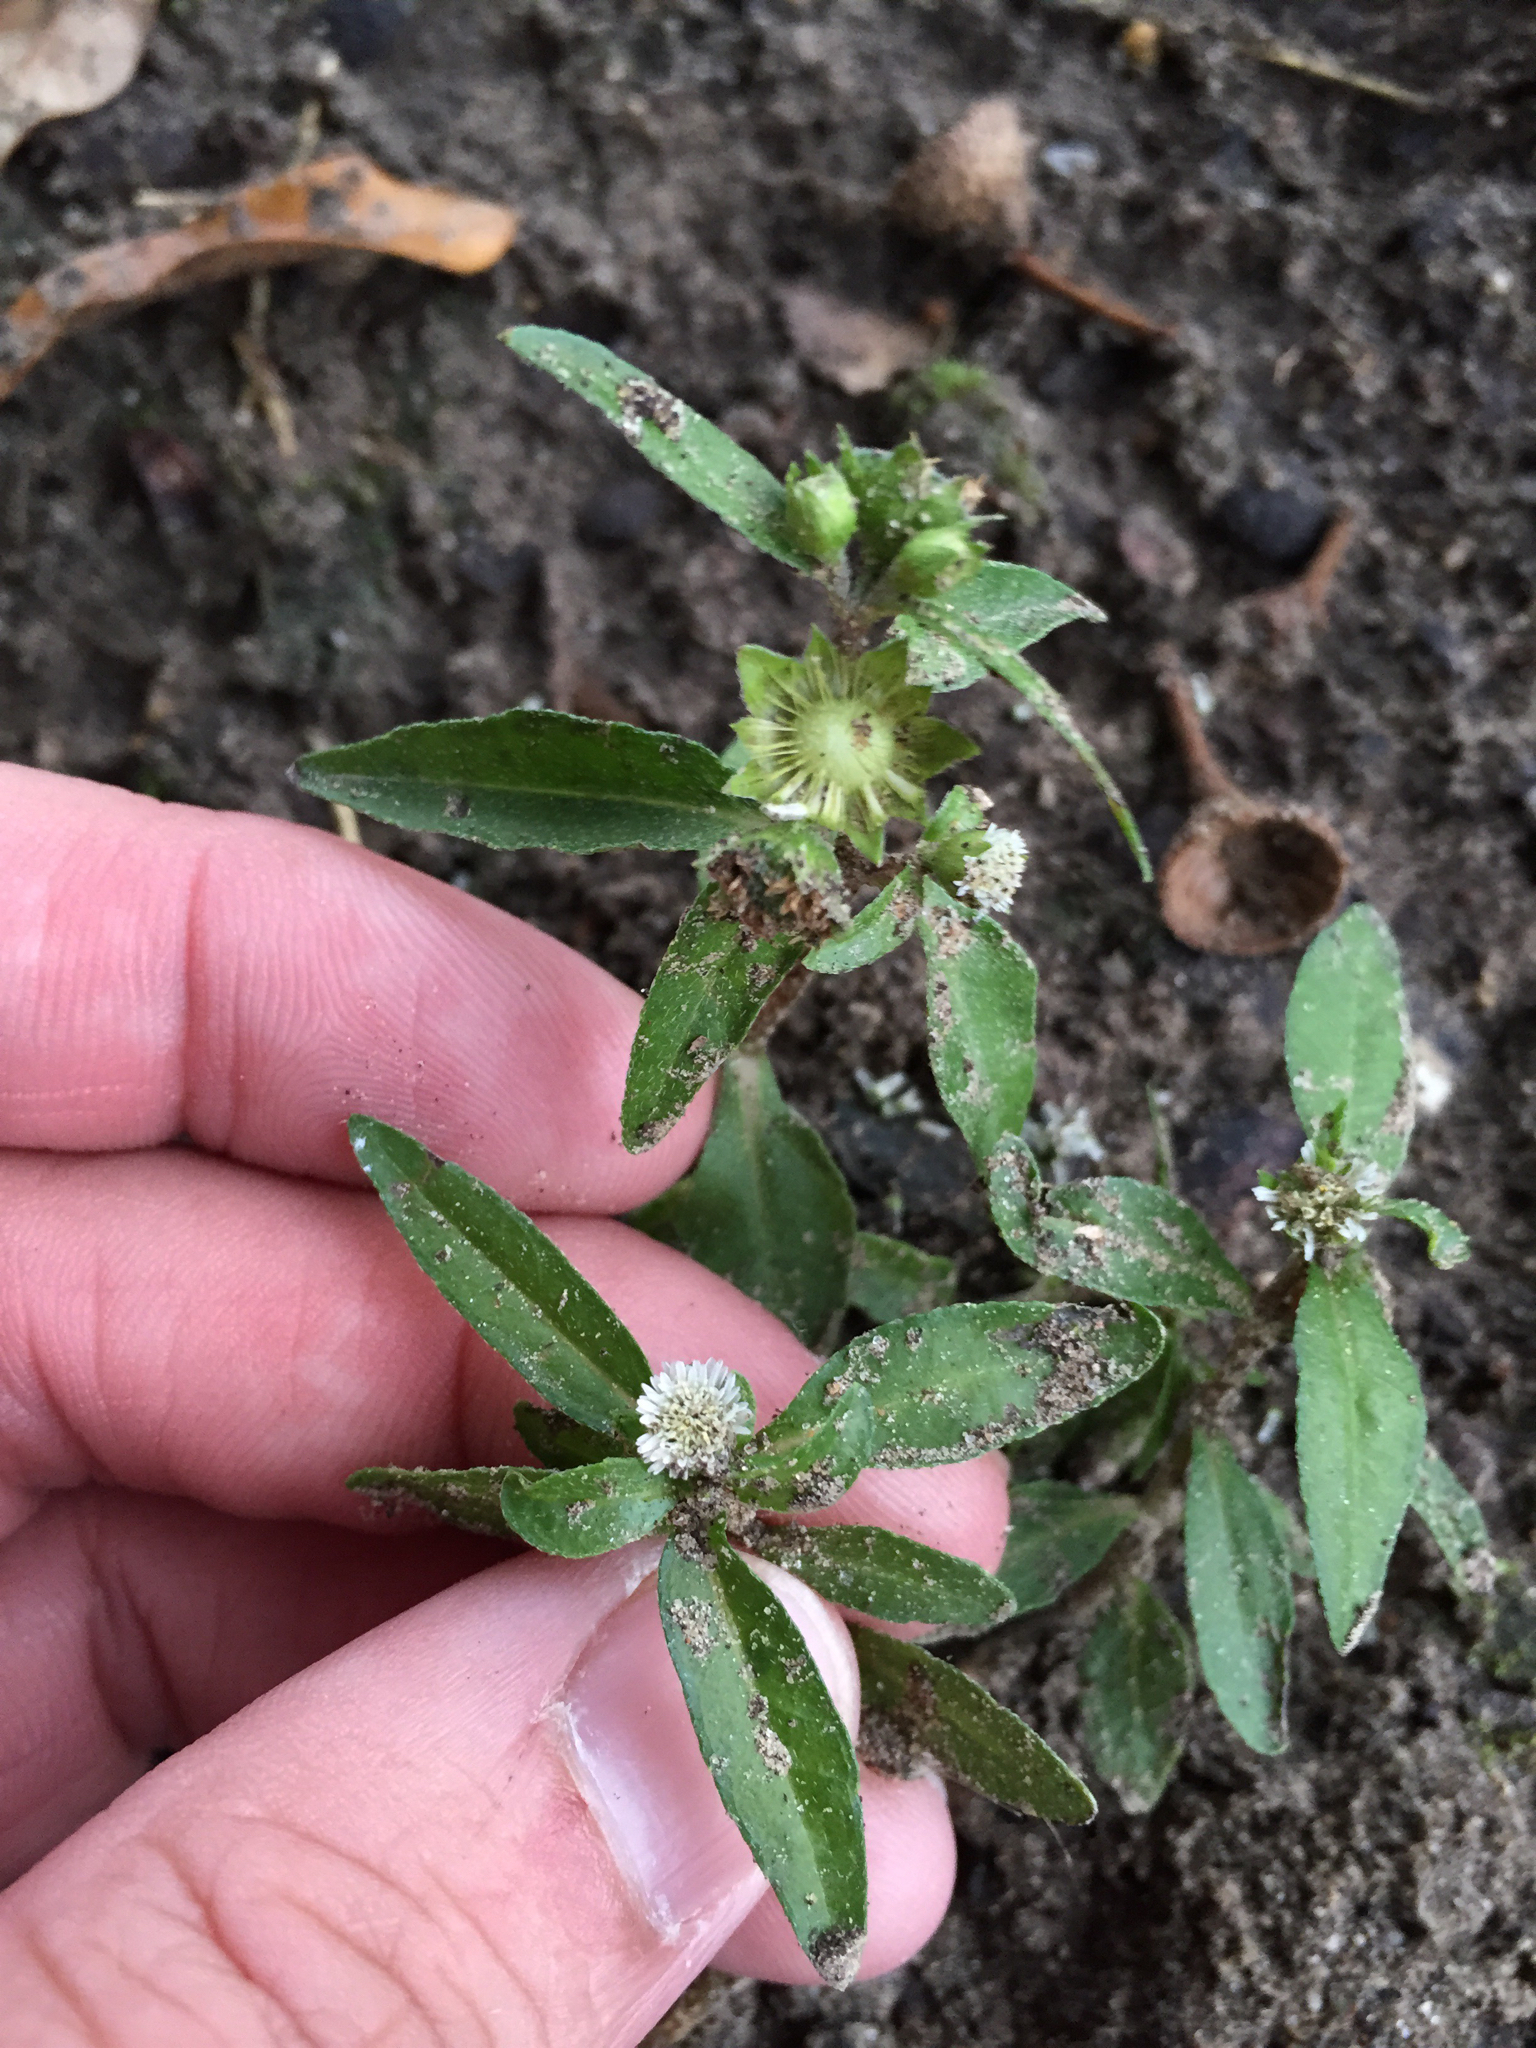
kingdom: Plantae
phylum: Tracheophyta
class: Magnoliopsida
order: Asterales
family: Asteraceae
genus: Eclipta
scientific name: Eclipta prostrata
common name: False daisy
